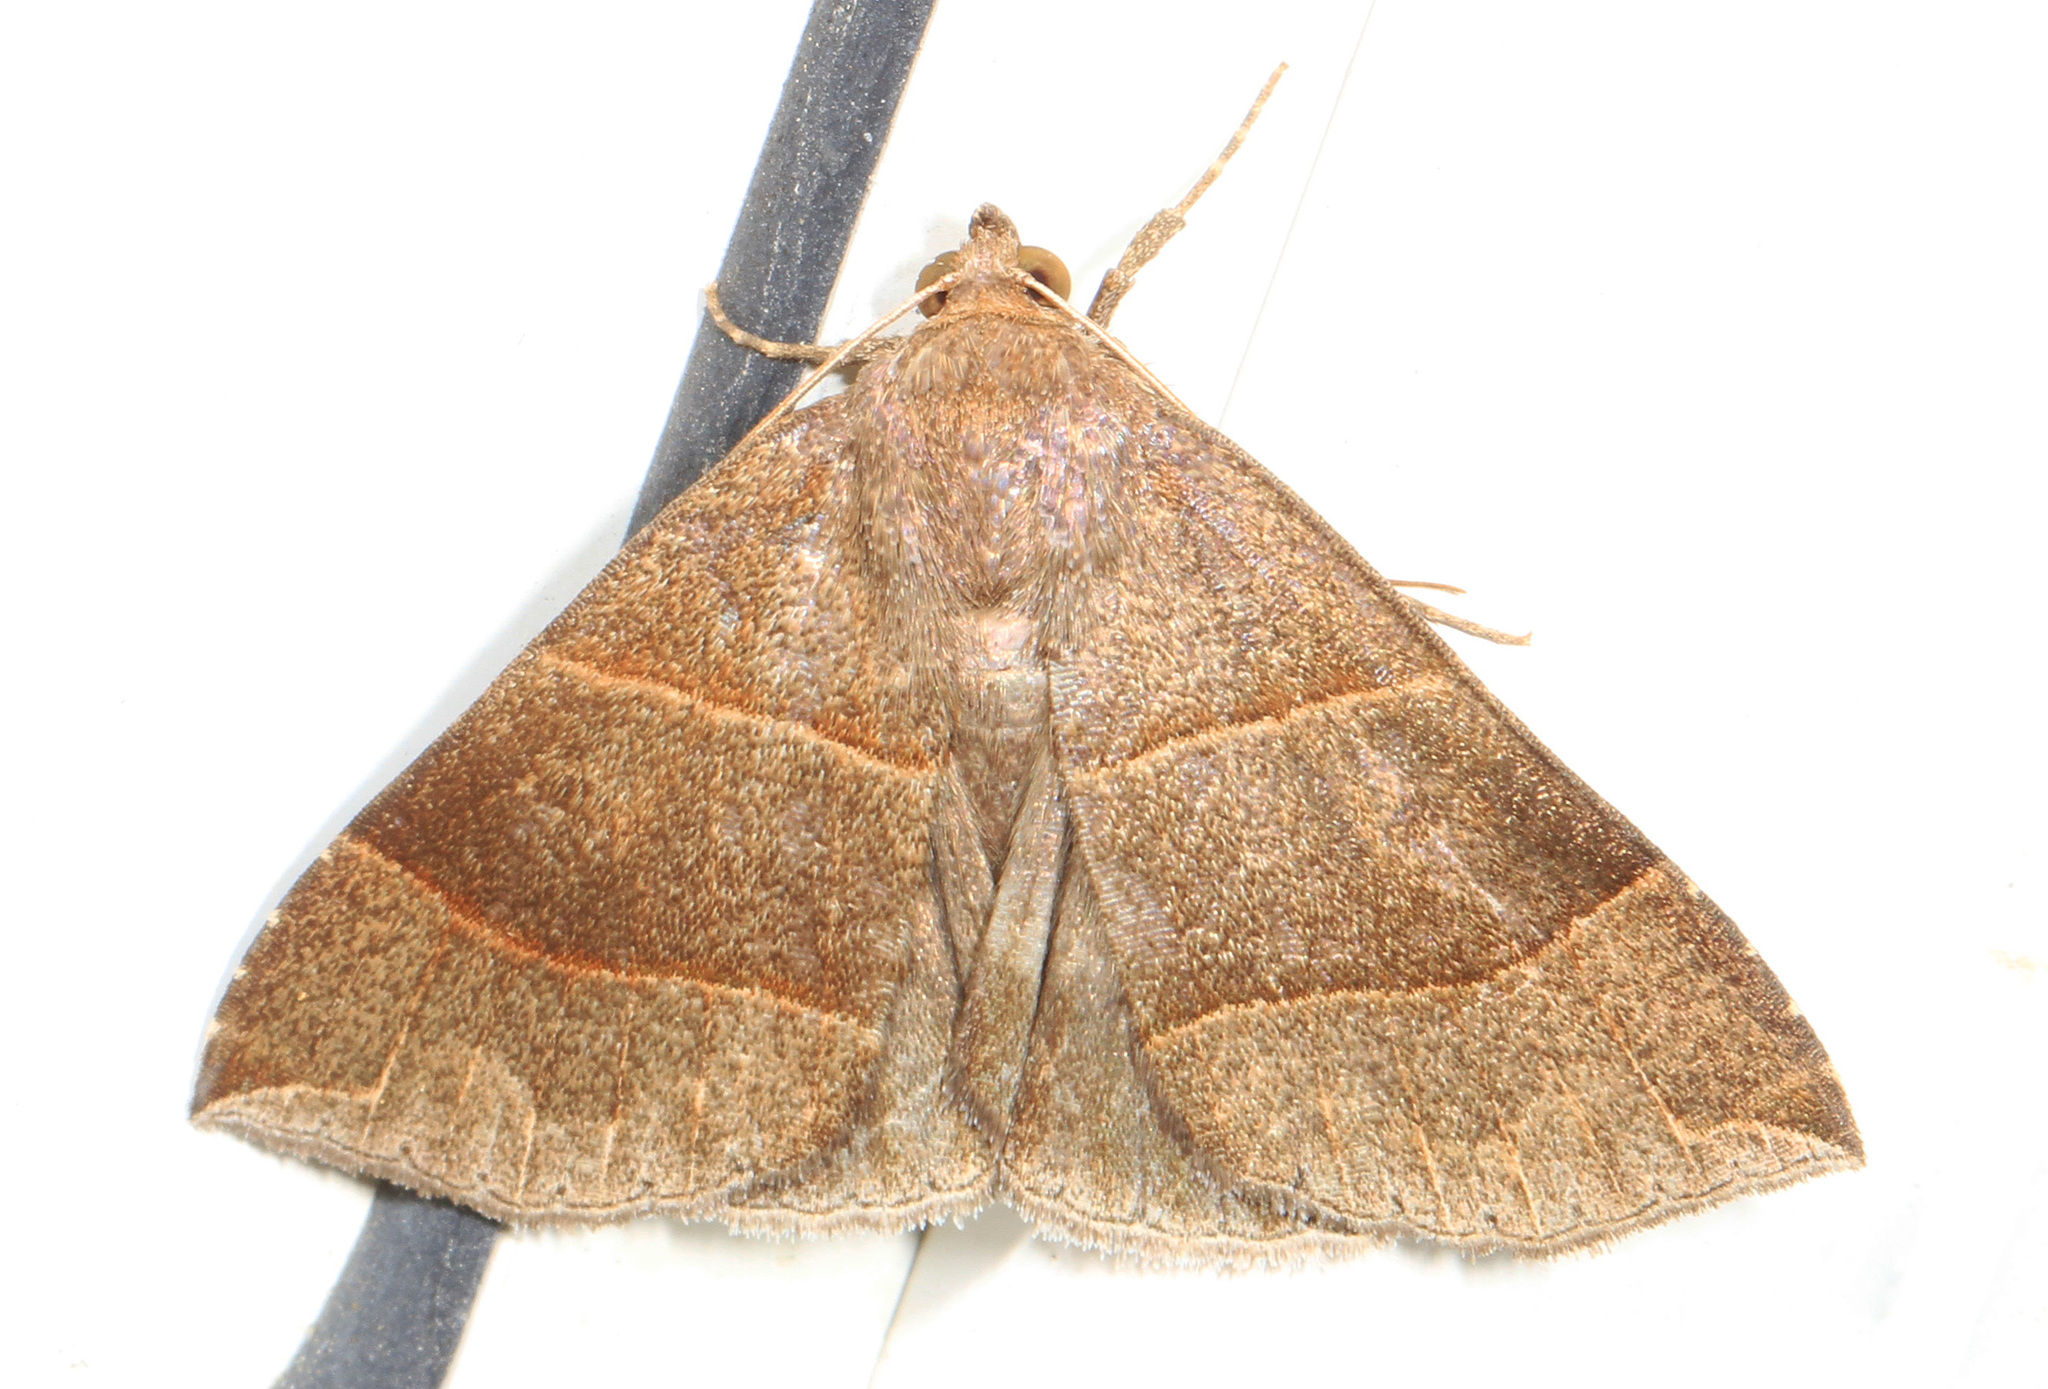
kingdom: Animalia
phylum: Arthropoda
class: Insecta
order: Lepidoptera
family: Erebidae
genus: Parallelia
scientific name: Parallelia bistriaris
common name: Maple looper moth
